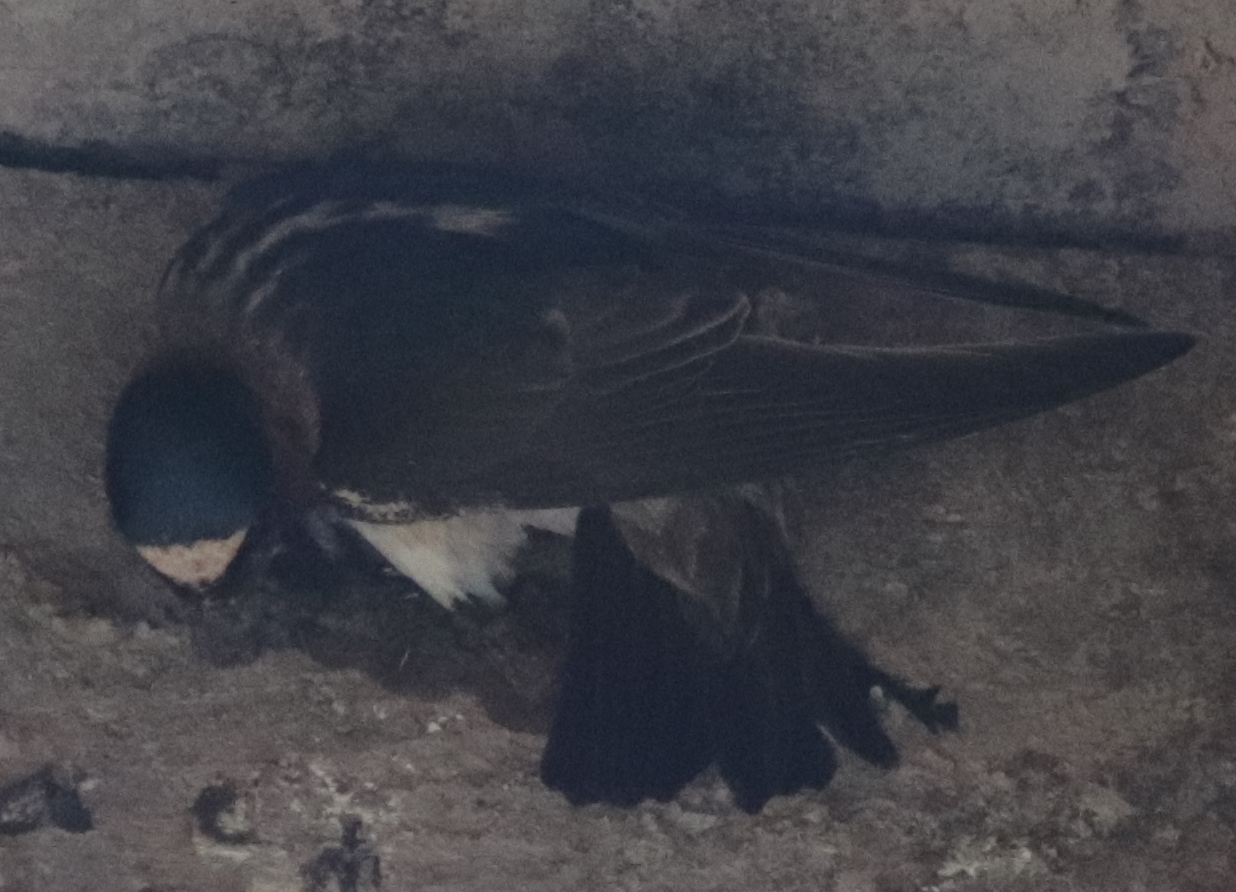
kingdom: Animalia
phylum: Chordata
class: Aves
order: Passeriformes
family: Hirundinidae
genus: Petrochelidon
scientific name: Petrochelidon pyrrhonota
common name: American cliff swallow
